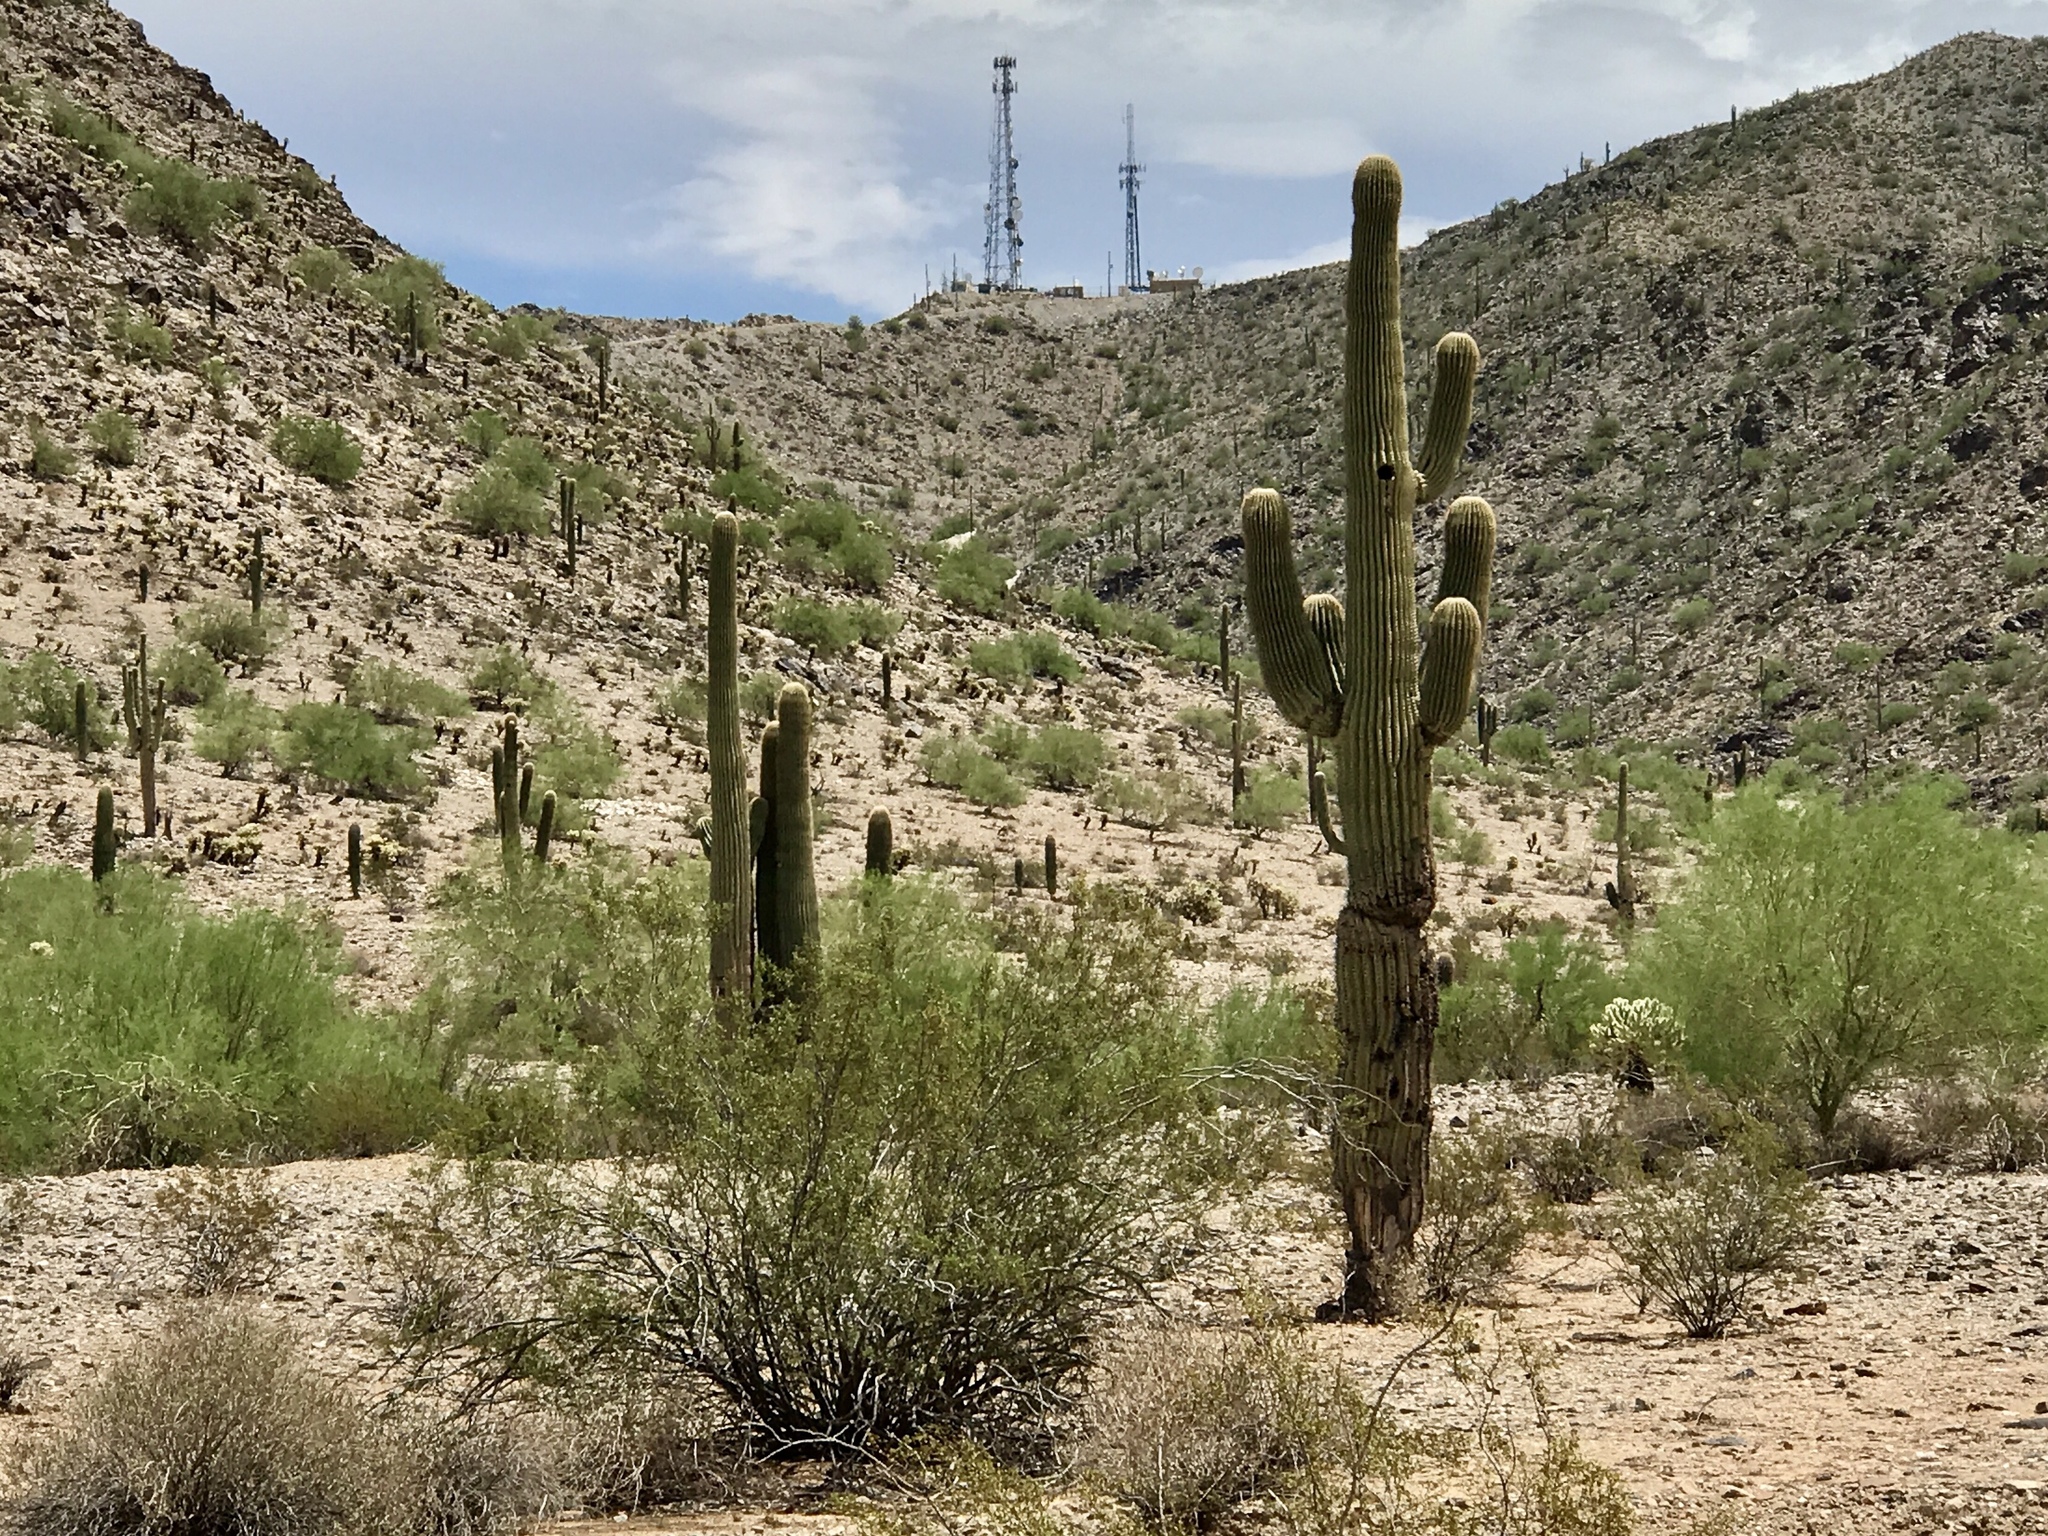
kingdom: Plantae
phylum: Tracheophyta
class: Magnoliopsida
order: Caryophyllales
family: Cactaceae
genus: Carnegiea
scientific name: Carnegiea gigantea
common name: Saguaro
